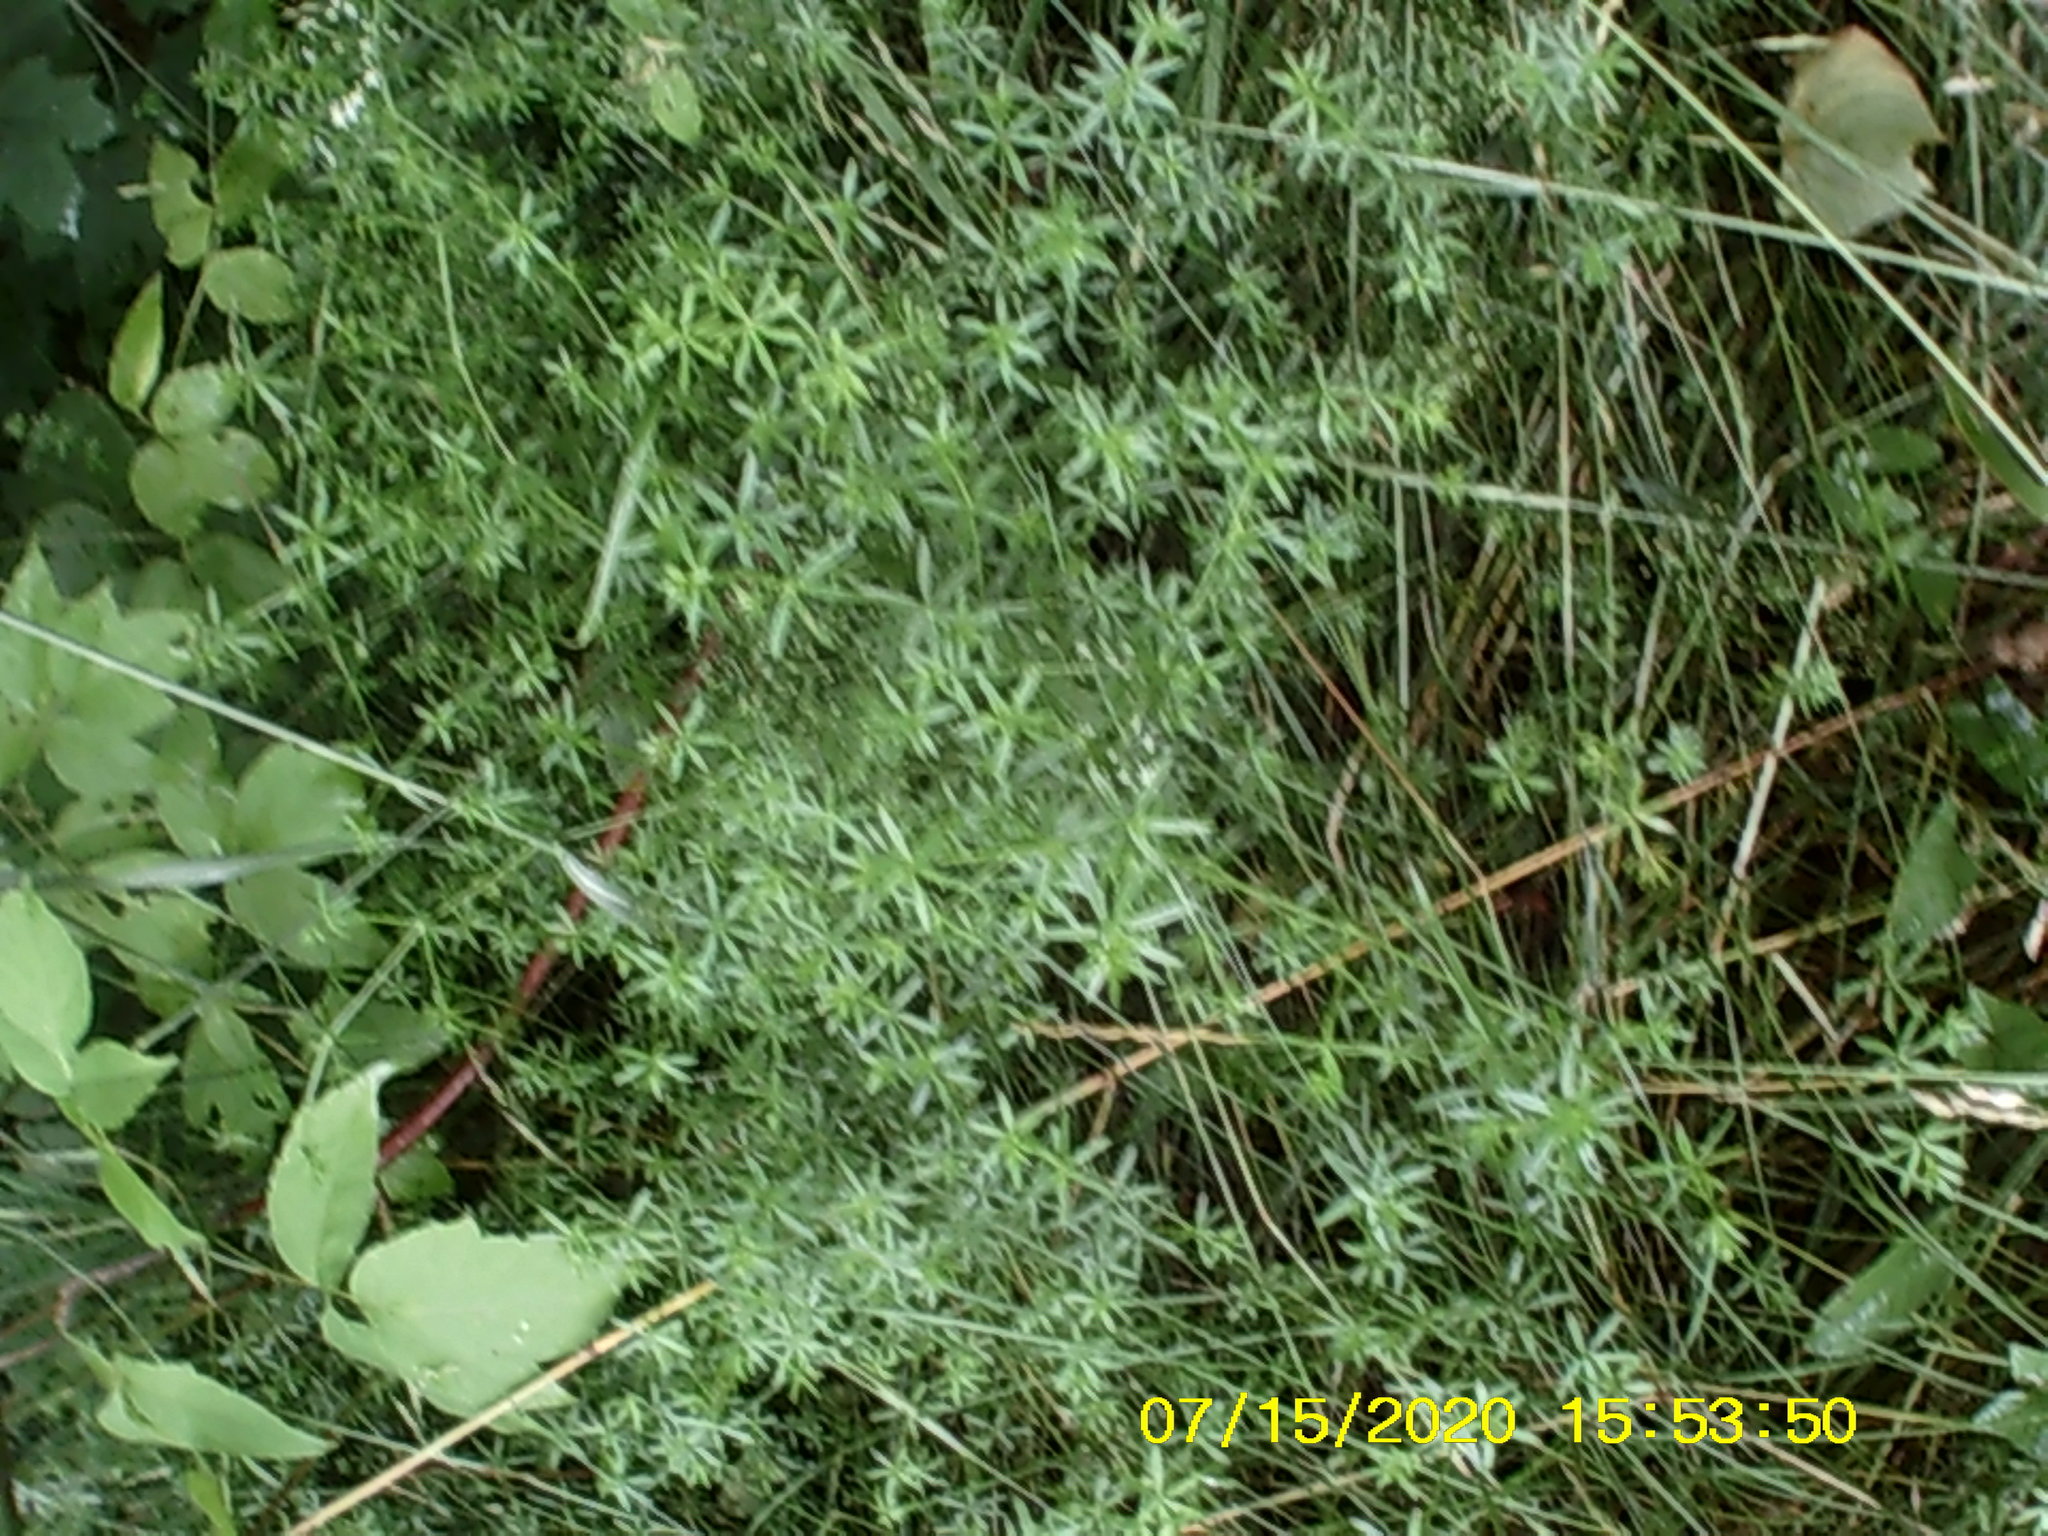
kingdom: Plantae
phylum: Tracheophyta
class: Magnoliopsida
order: Gentianales
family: Rubiaceae
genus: Galium
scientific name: Galium mollugo
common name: Hedge bedstraw
